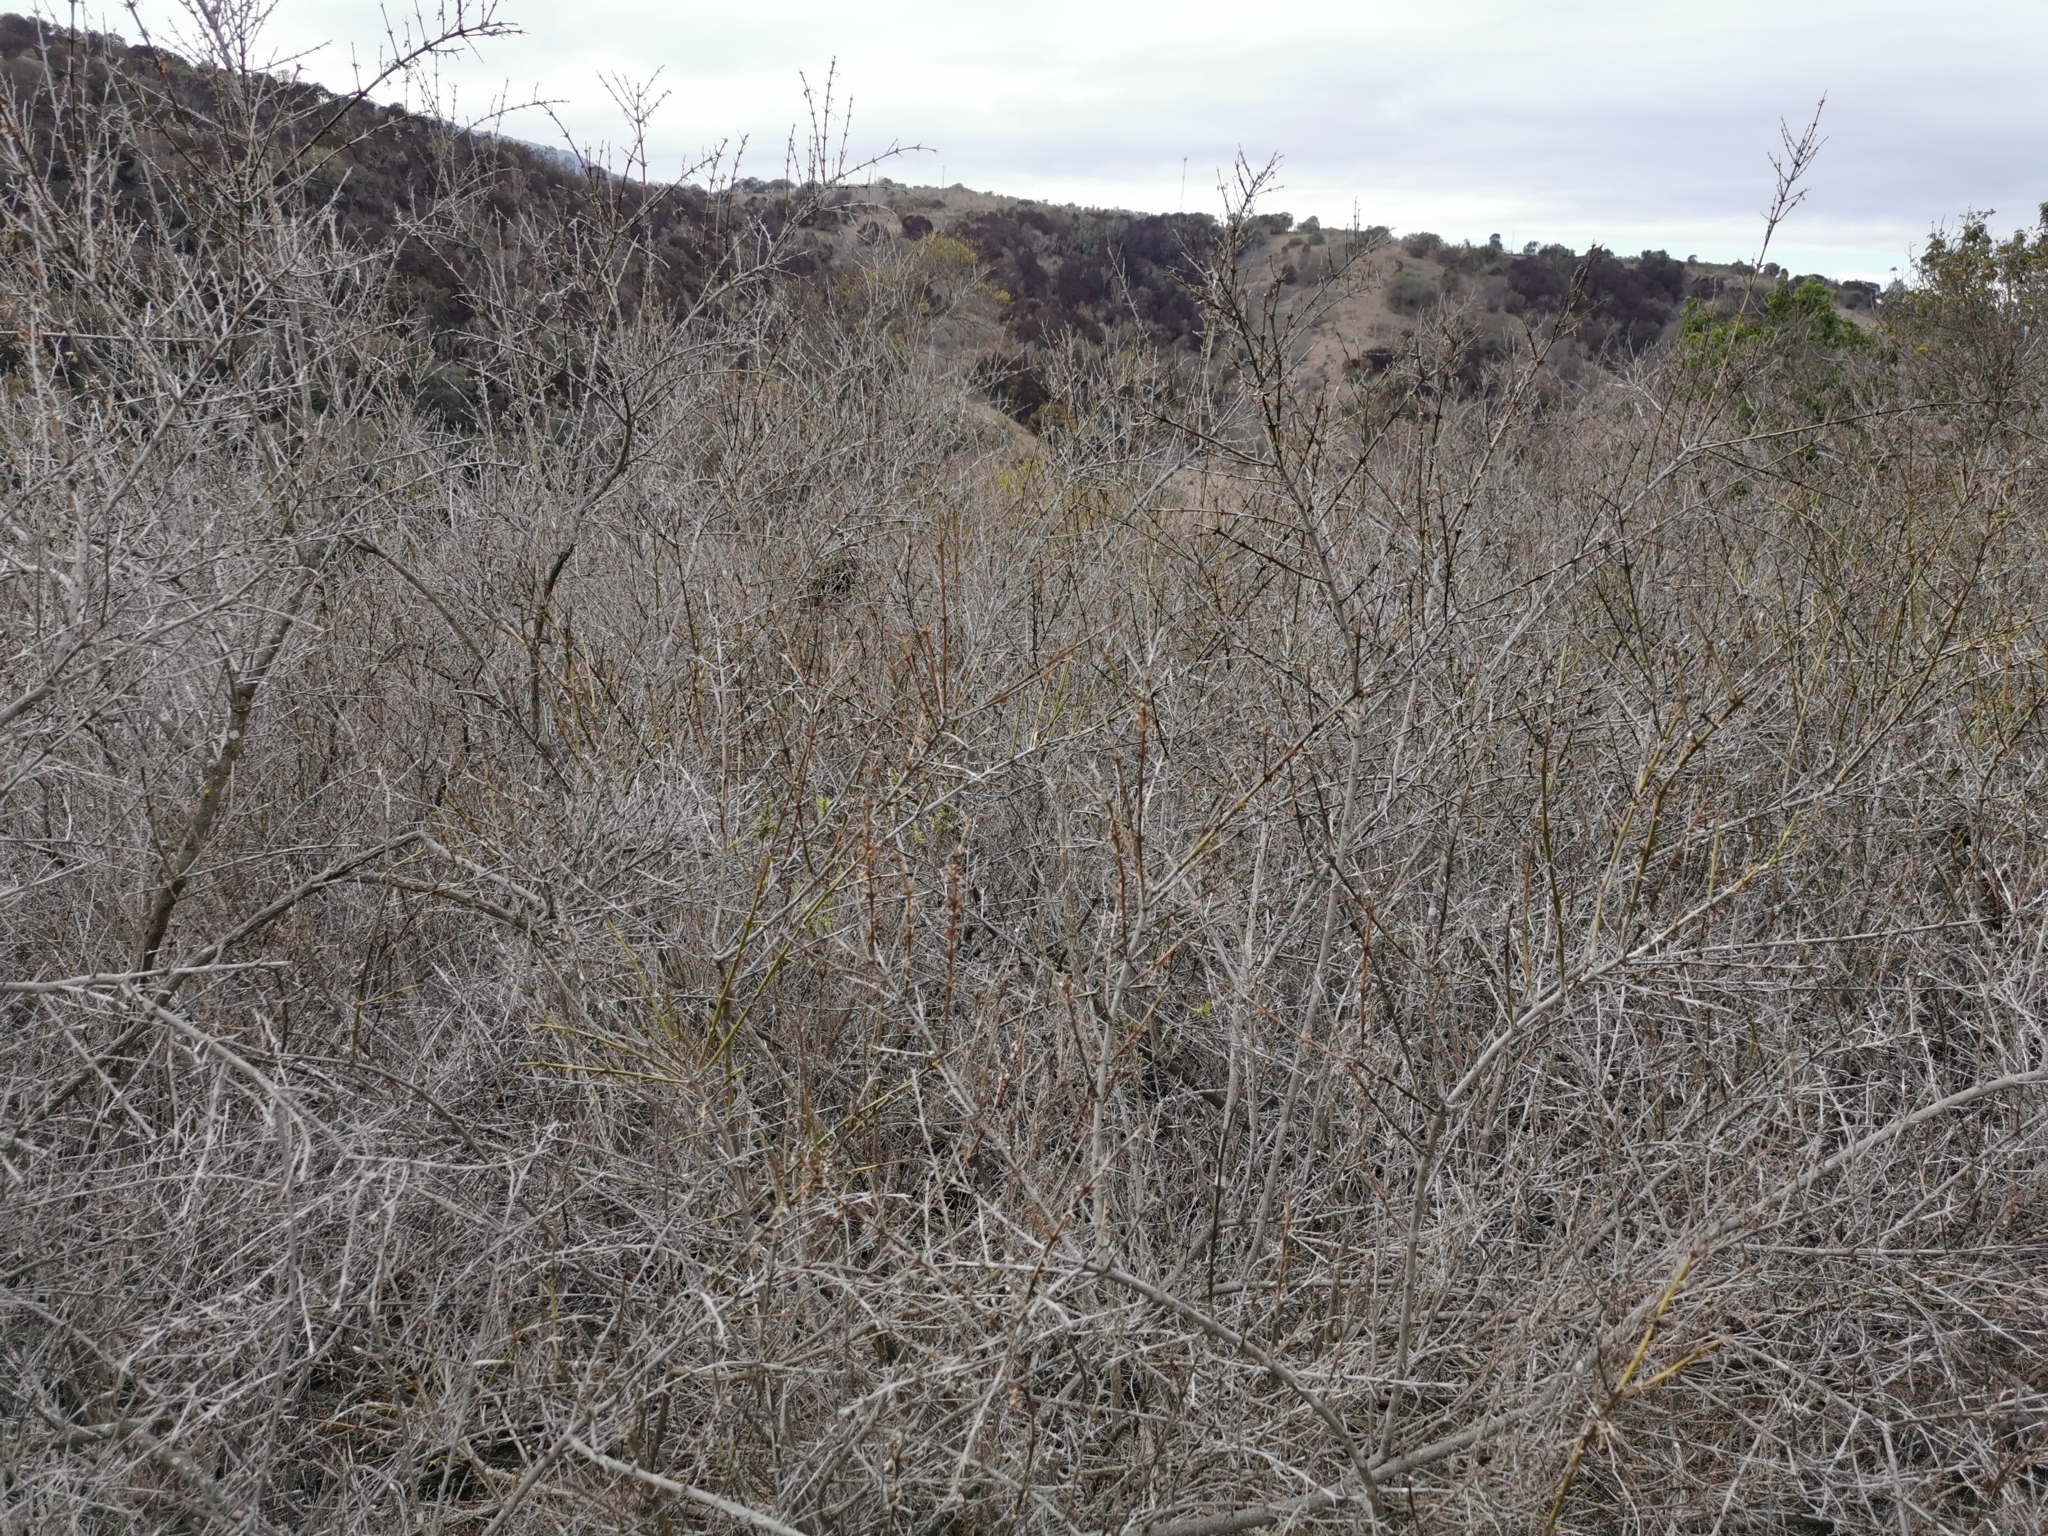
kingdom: Plantae
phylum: Tracheophyta
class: Magnoliopsida
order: Rosales
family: Rhamnaceae
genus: Retanilla
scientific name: Retanilla trinervia
